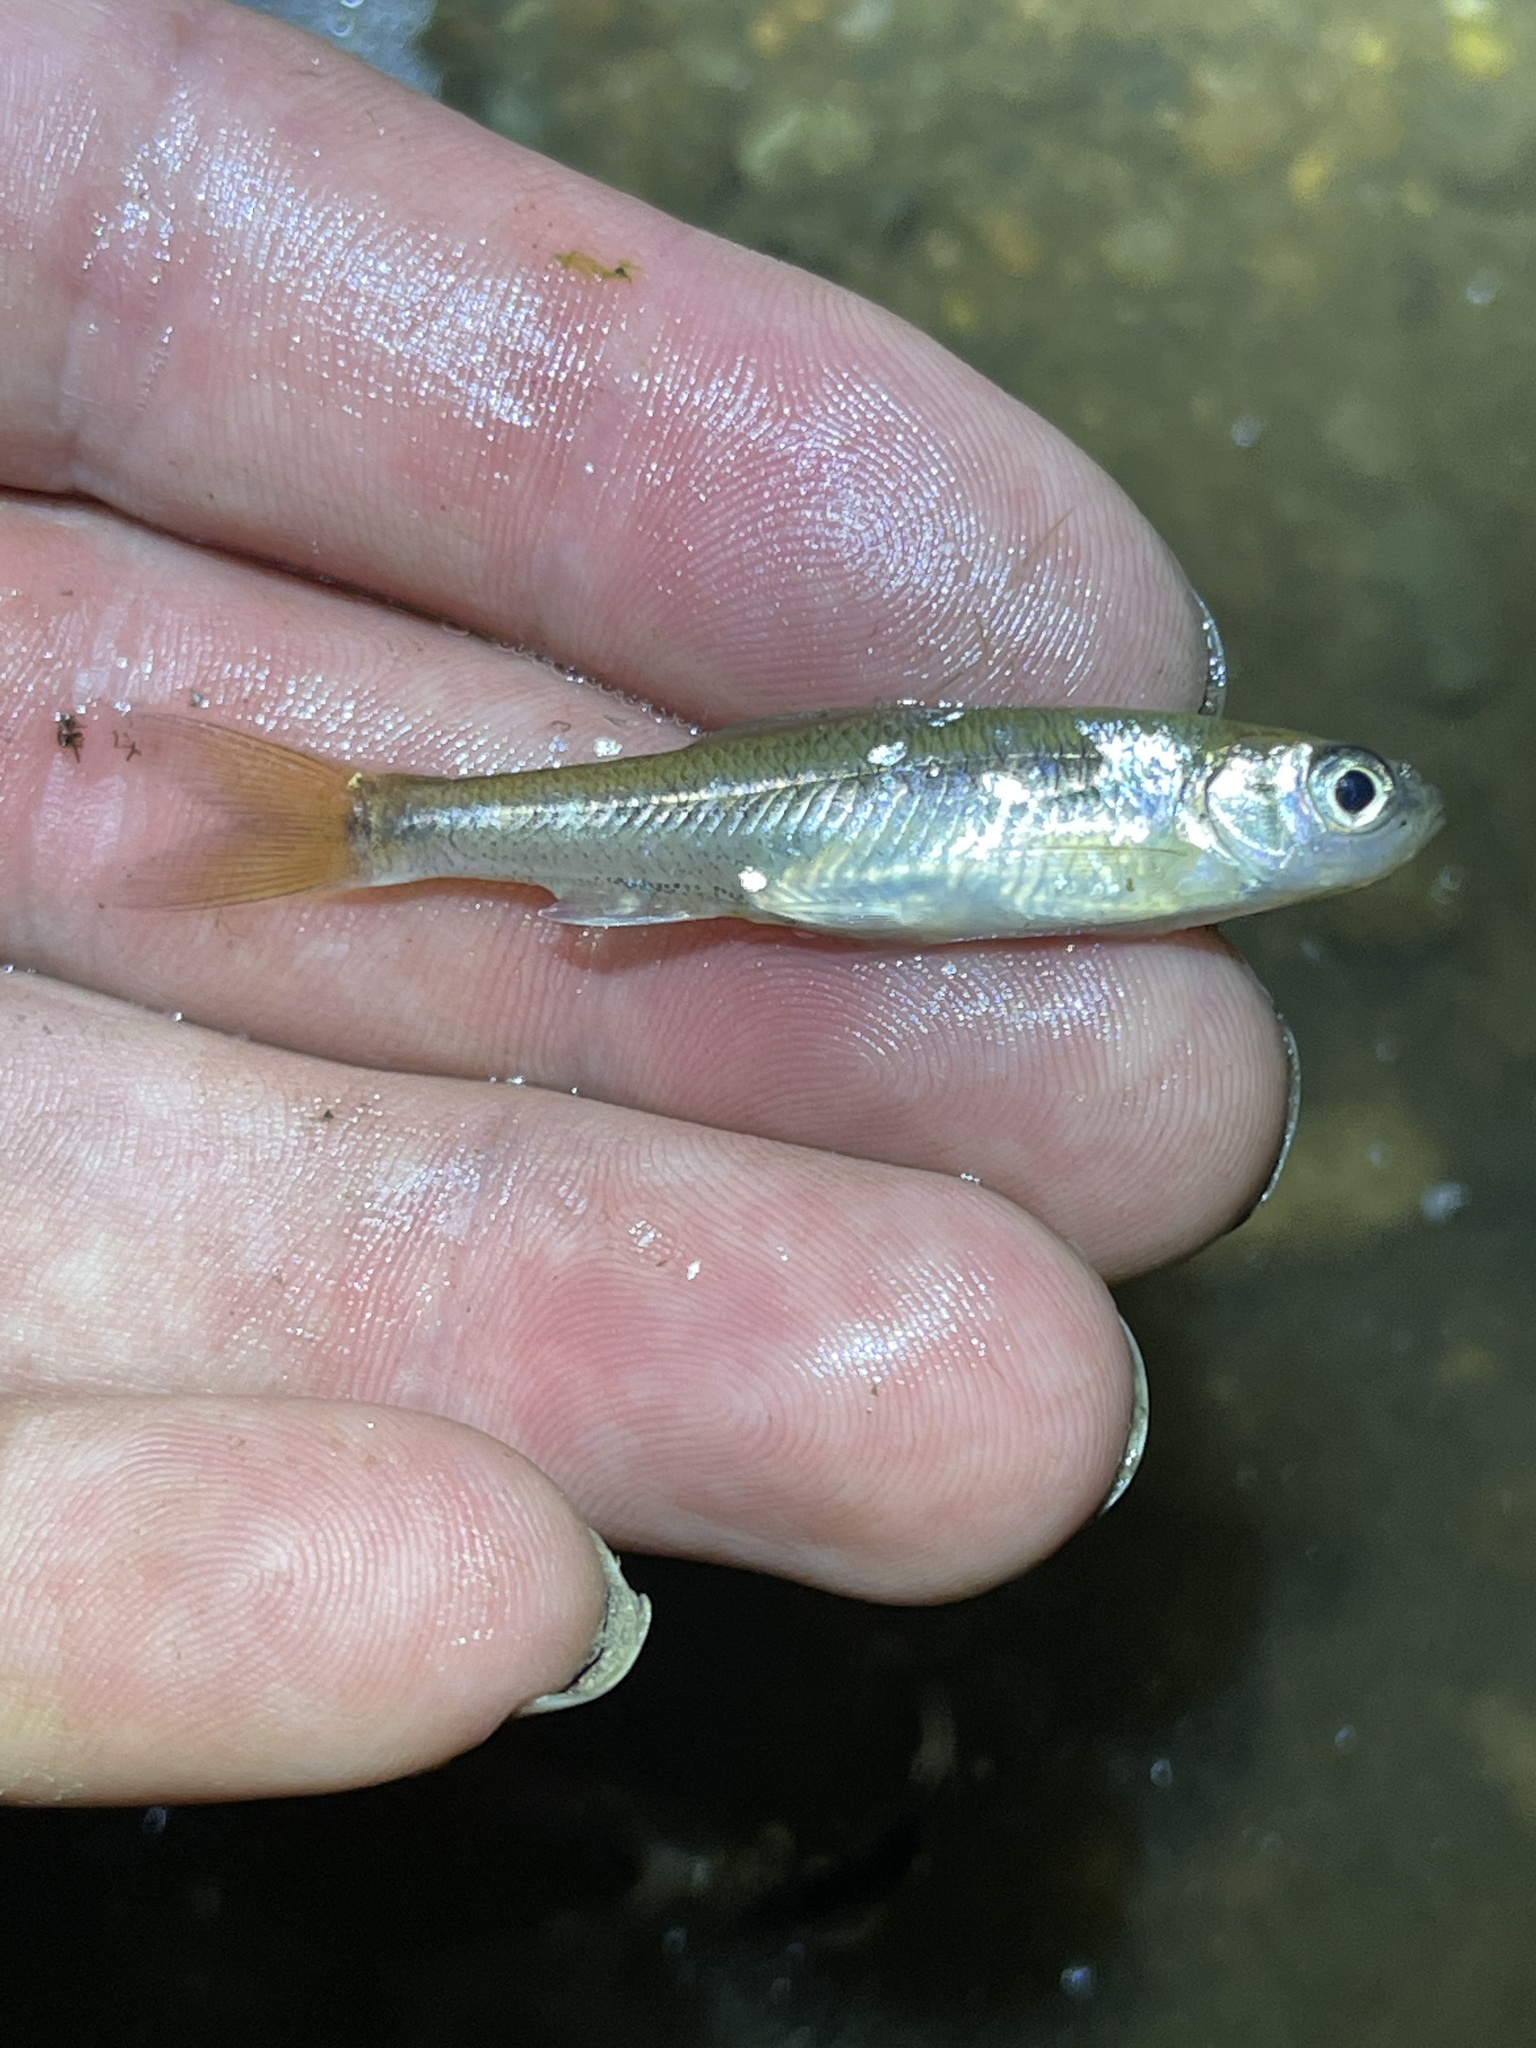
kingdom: Animalia
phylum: Chordata
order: Cypriniformes
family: Cyprinidae
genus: Luxilus
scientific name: Luxilus cornutus
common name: Common shiner
